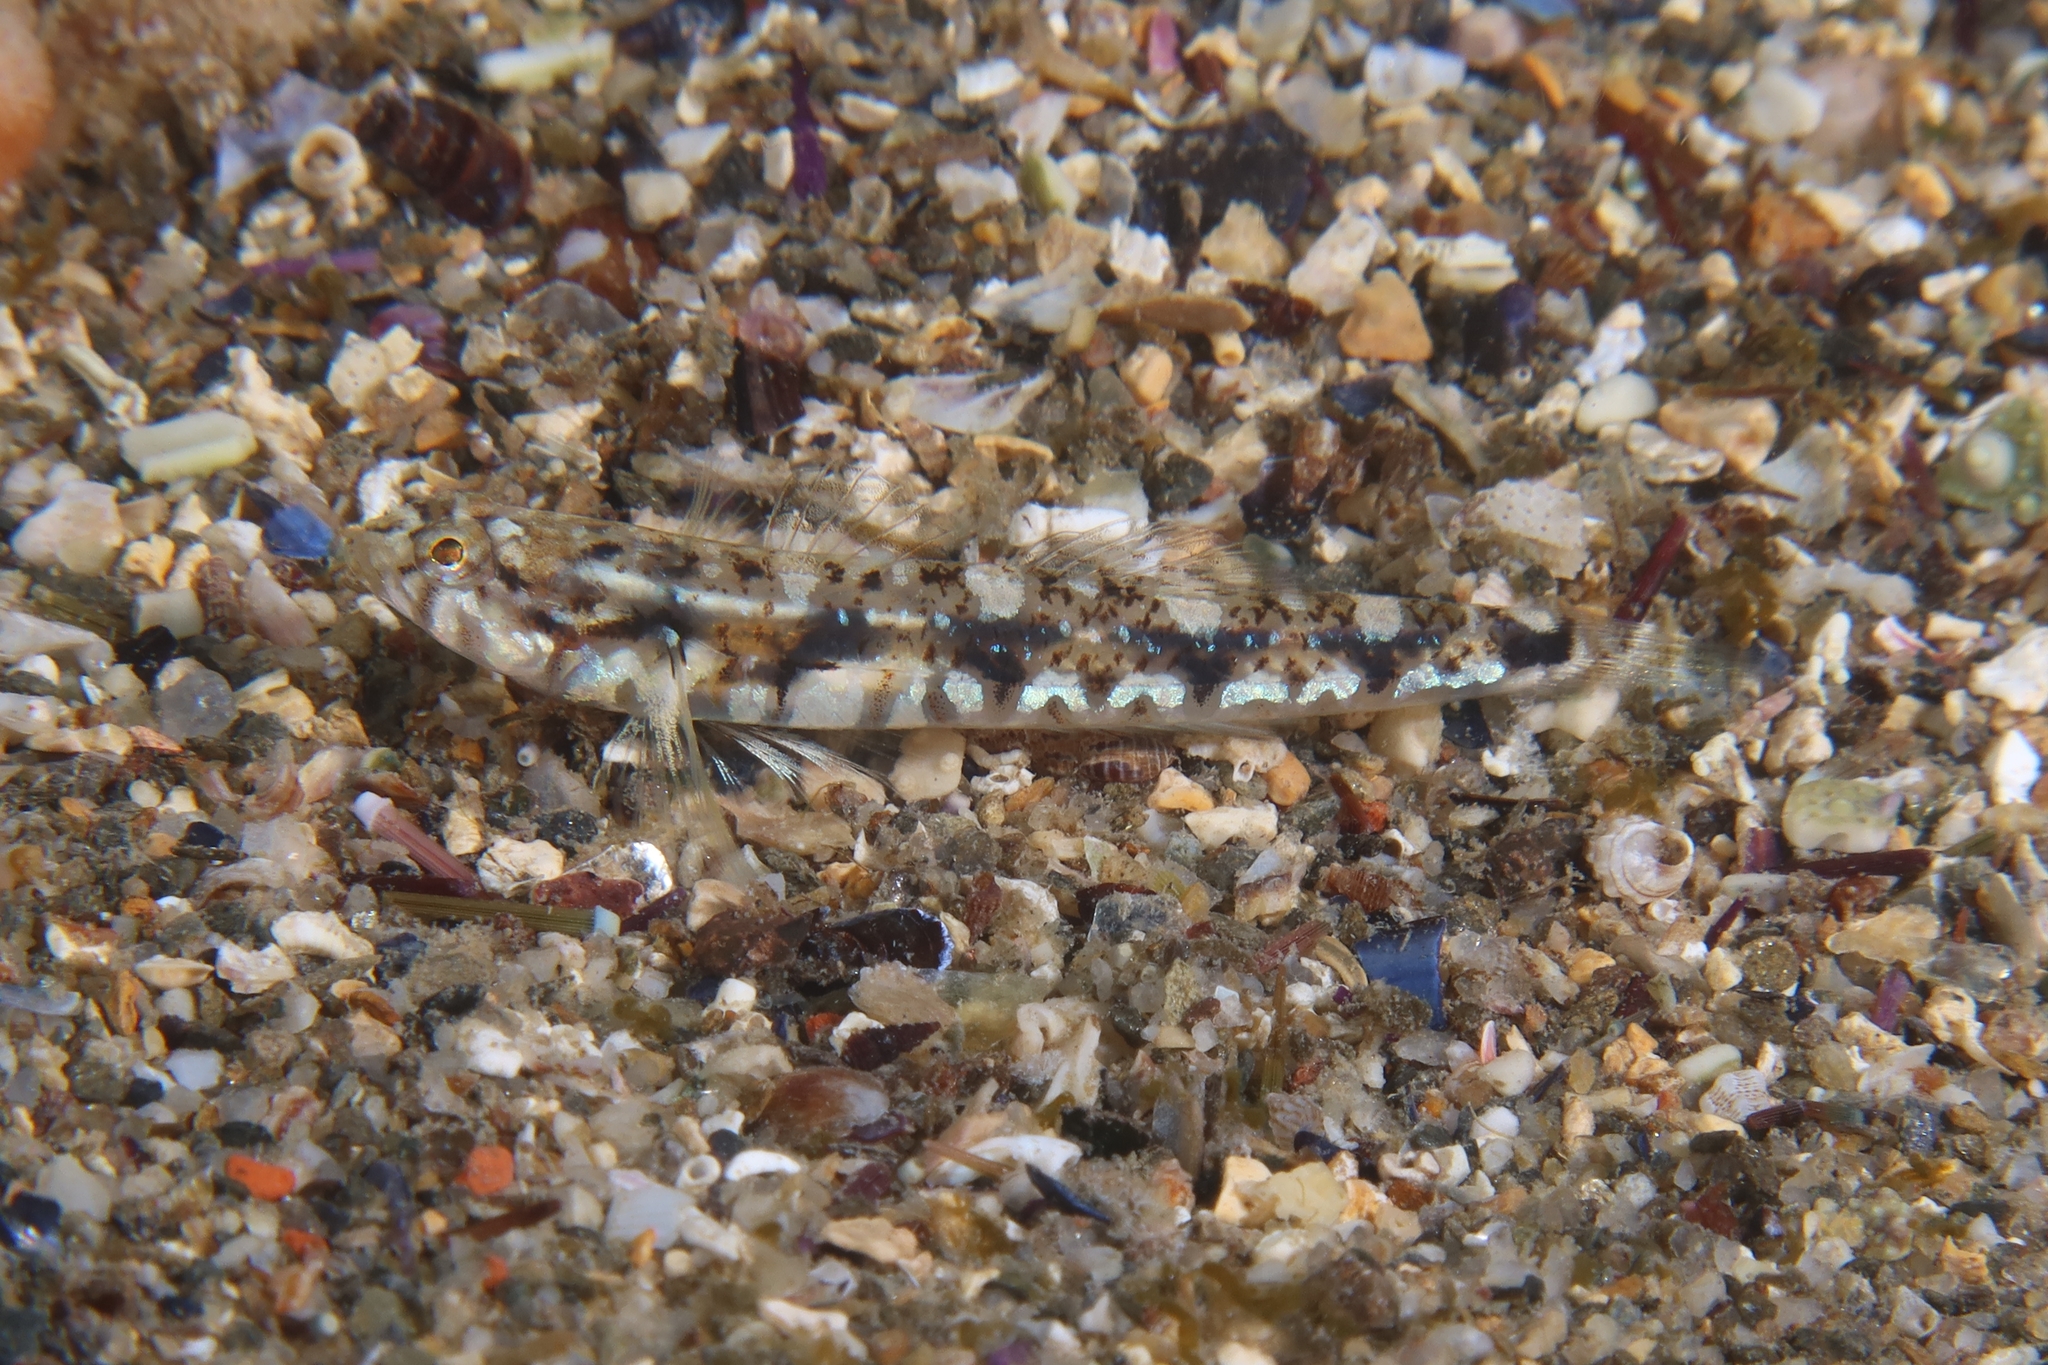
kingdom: Animalia
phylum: Chordata
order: Perciformes
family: Gobiidae
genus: Pomatoschistus
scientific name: Pomatoschistus bathi
